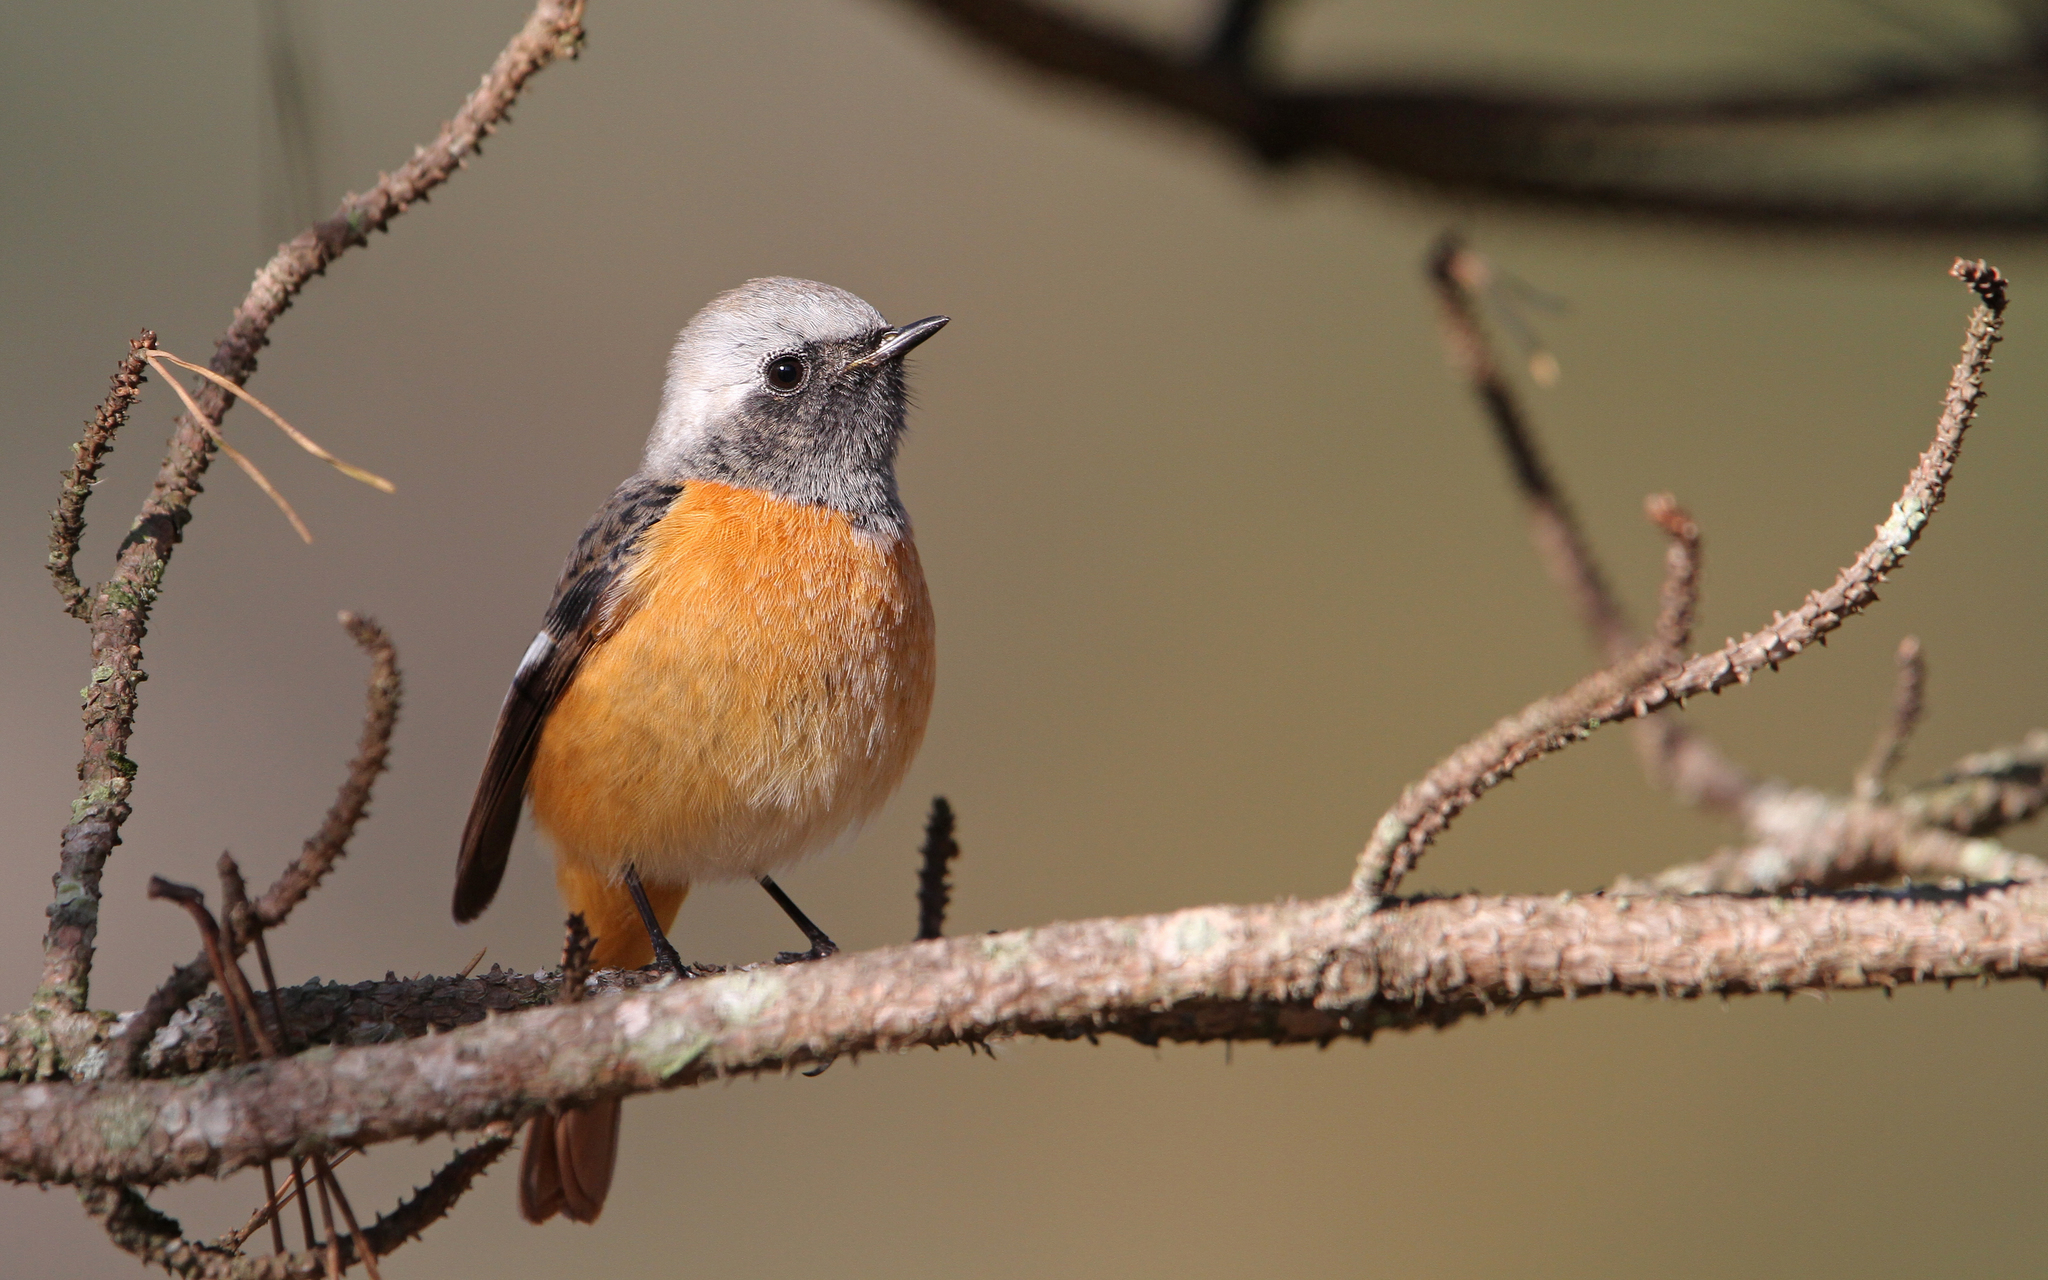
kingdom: Animalia
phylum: Chordata
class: Aves
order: Passeriformes
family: Muscicapidae
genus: Phoenicurus
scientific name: Phoenicurus auroreus
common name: Daurian redstart
